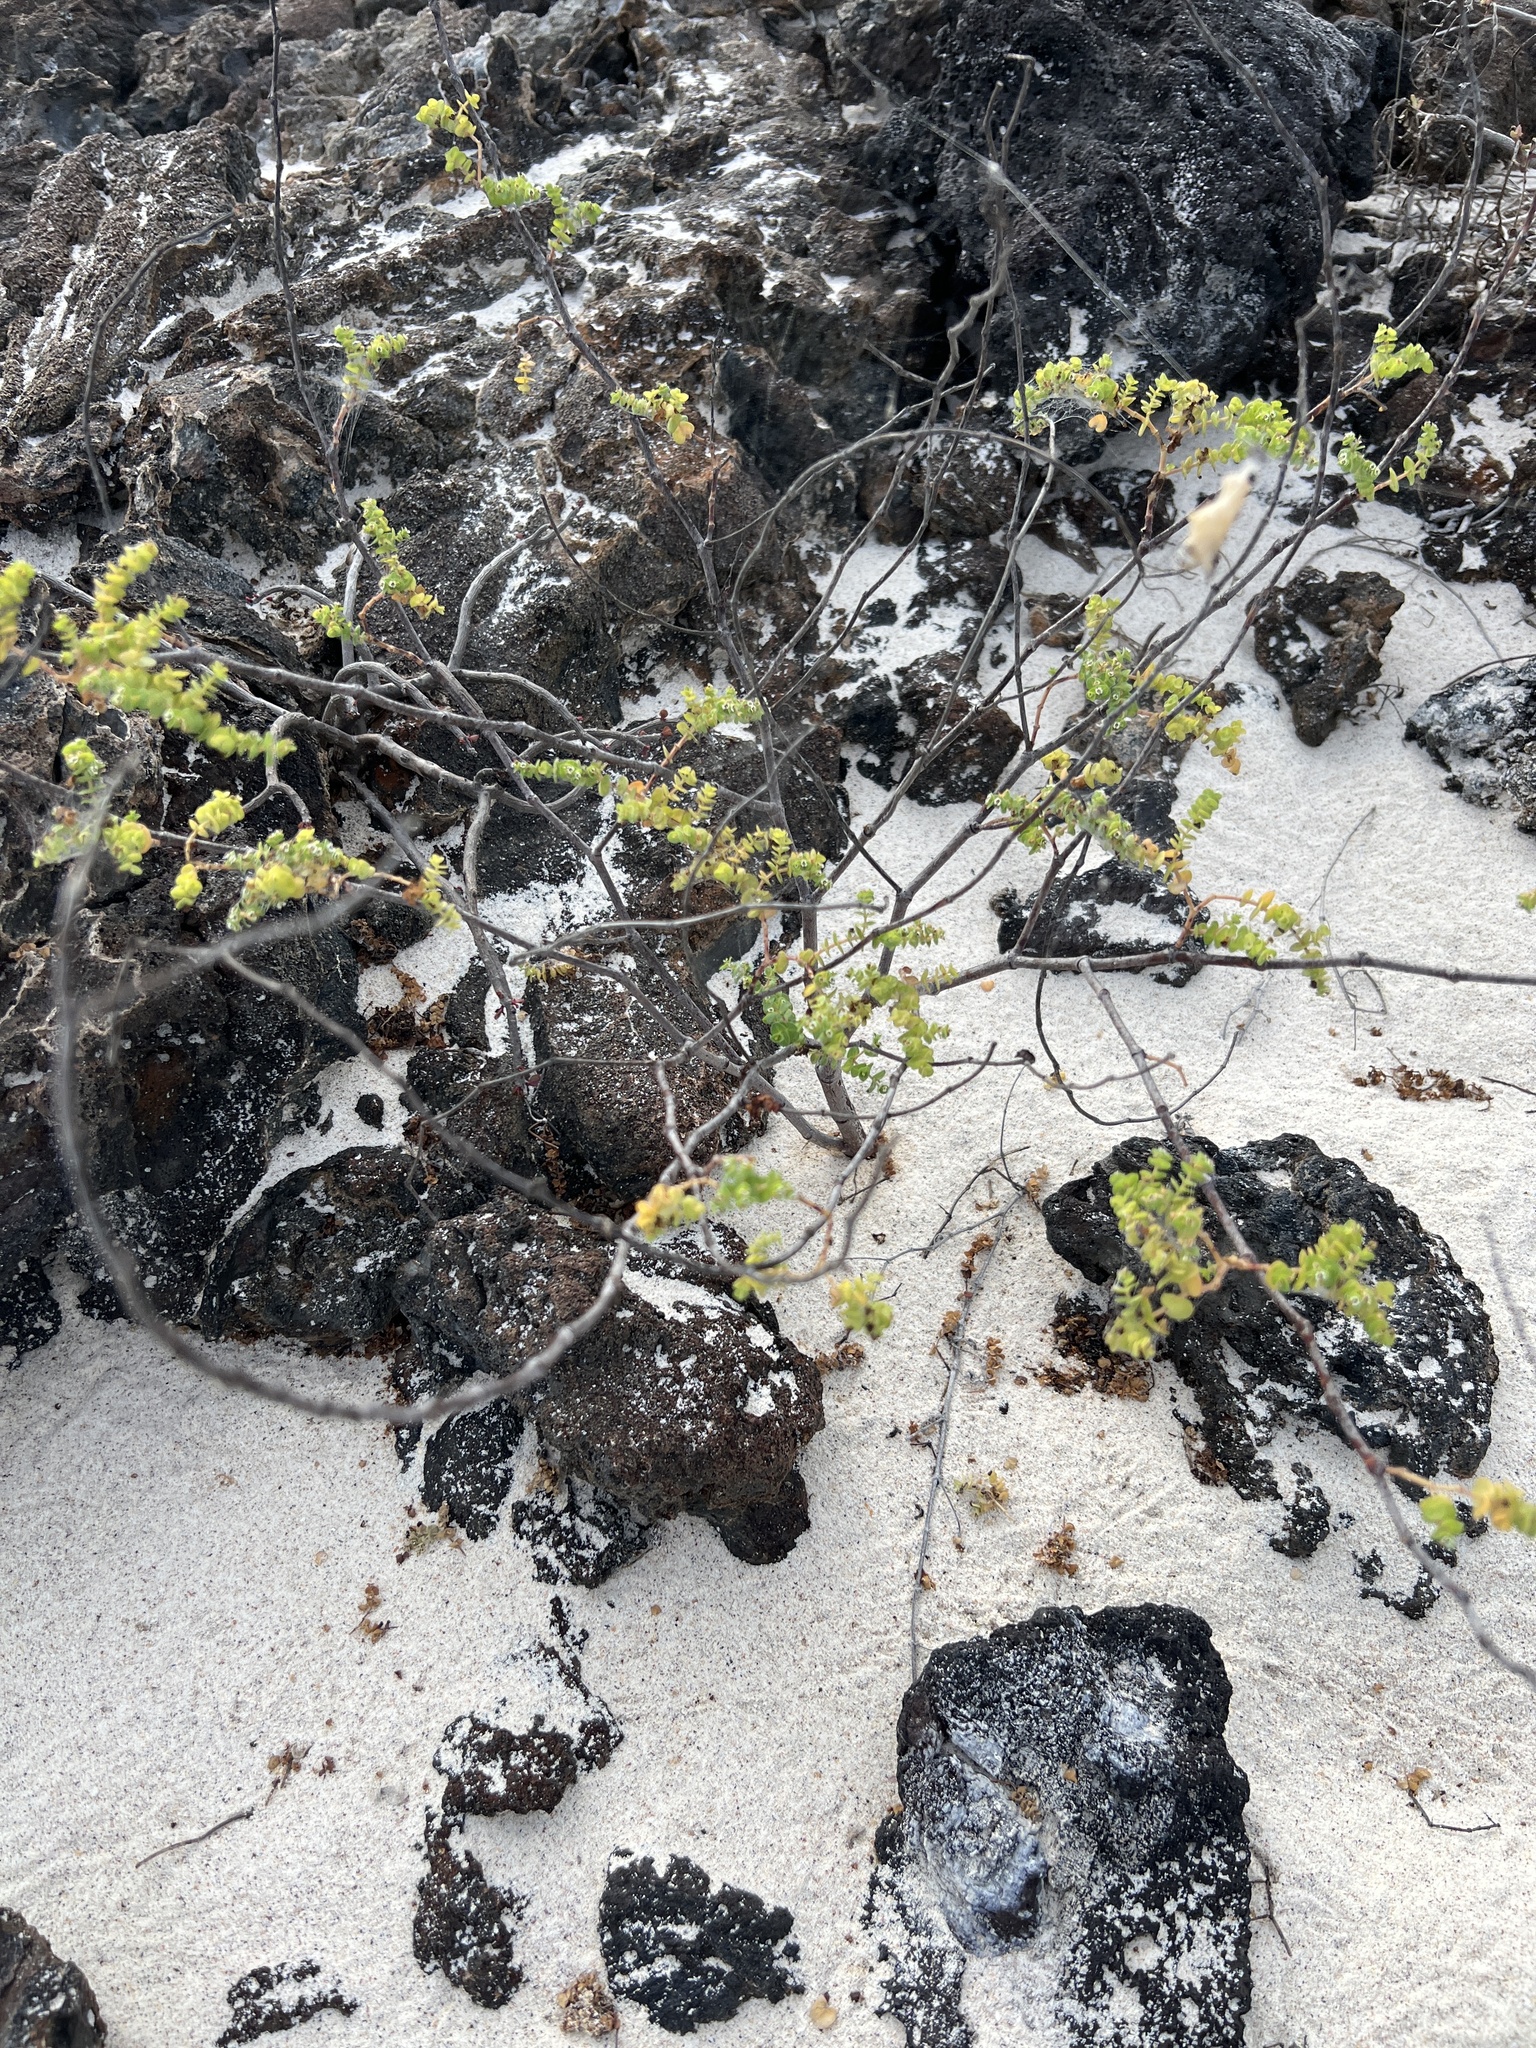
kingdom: Plantae
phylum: Tracheophyta
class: Magnoliopsida
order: Malpighiales
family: Euphorbiaceae
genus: Euphorbia
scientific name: Euphorbia amplexicaulis
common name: Chamaesyce
